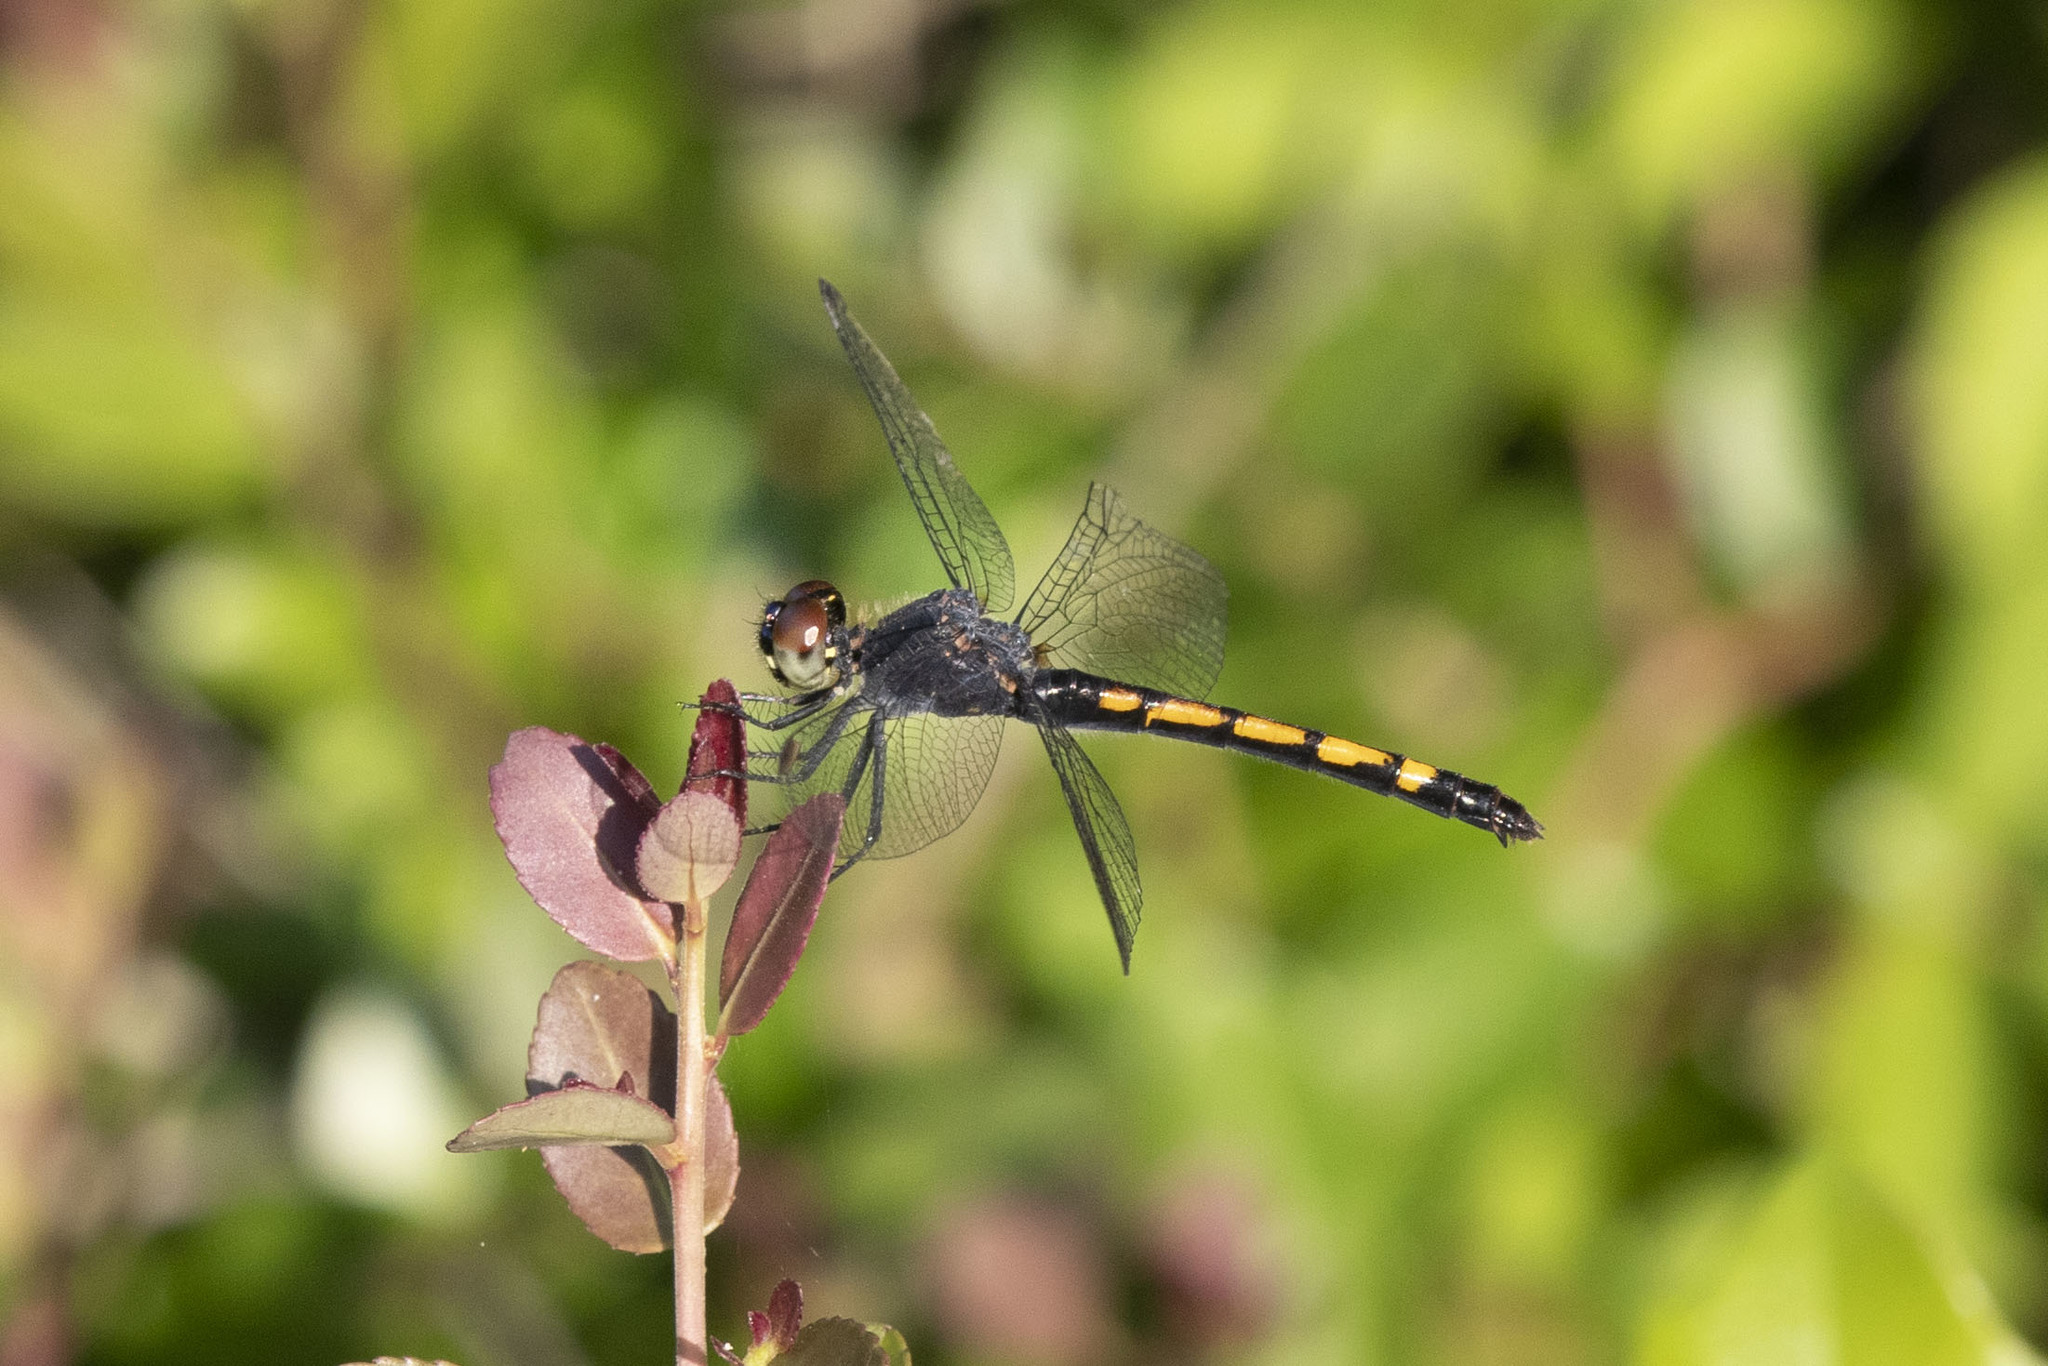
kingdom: Animalia
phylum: Arthropoda
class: Insecta
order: Odonata
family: Libellulidae
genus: Erythrodiplax
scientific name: Erythrodiplax berenice
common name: Seaside dragonlet
